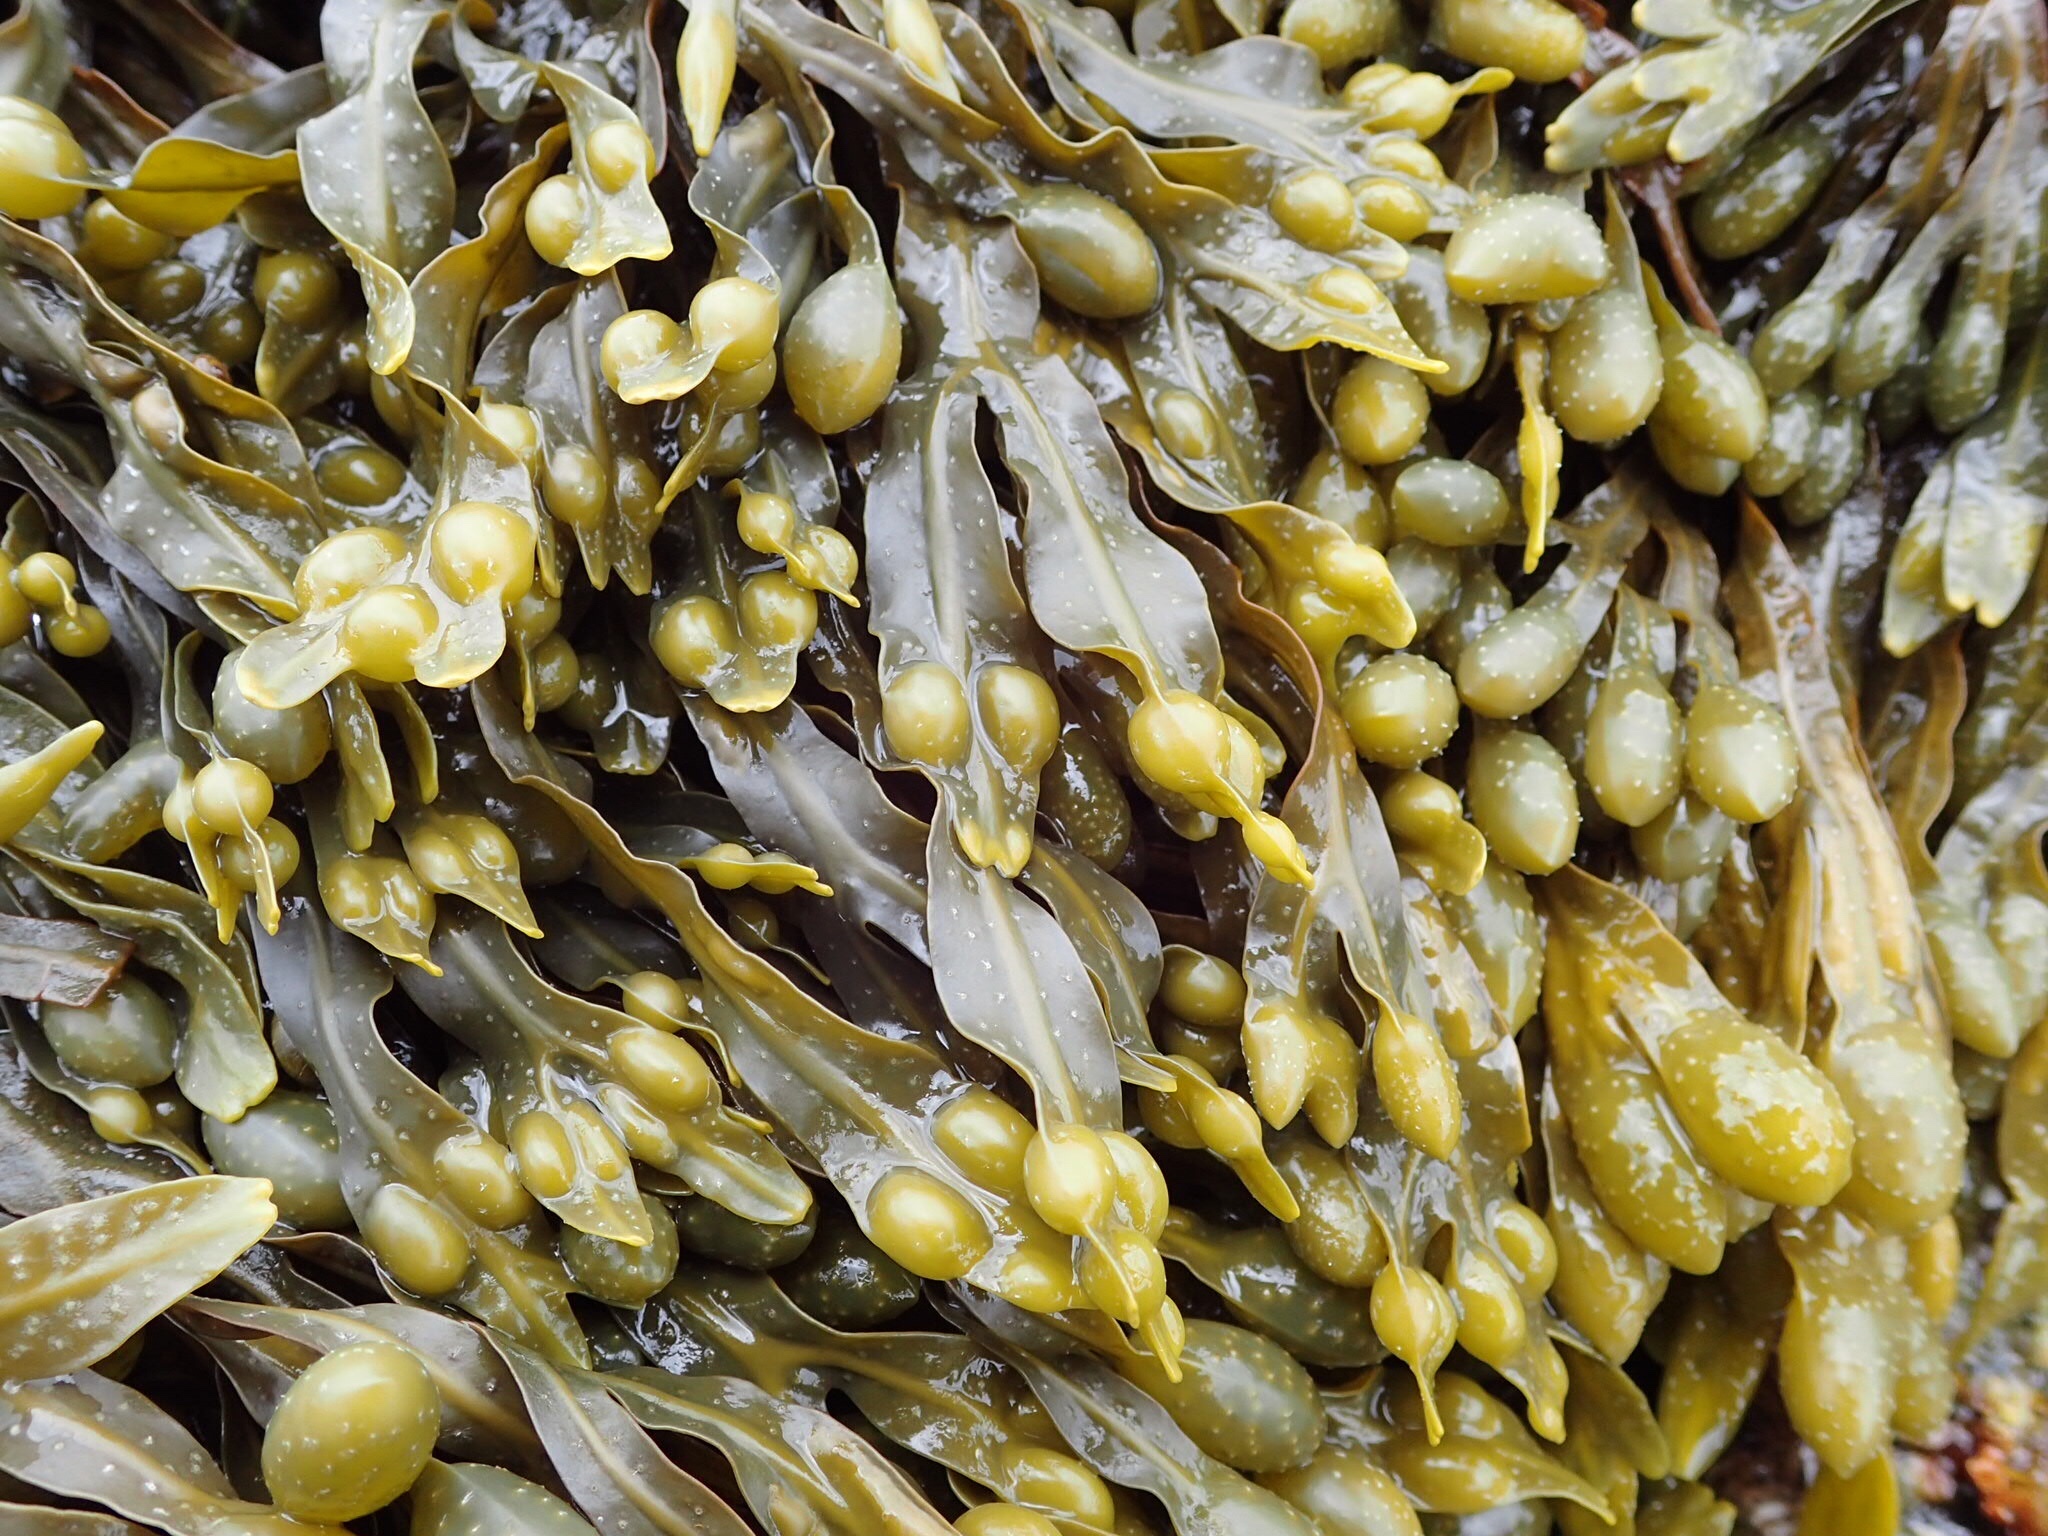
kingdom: Chromista
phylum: Ochrophyta
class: Phaeophyceae
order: Fucales
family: Fucaceae
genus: Fucus
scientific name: Fucus vesiculosus
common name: Bladder wrack
